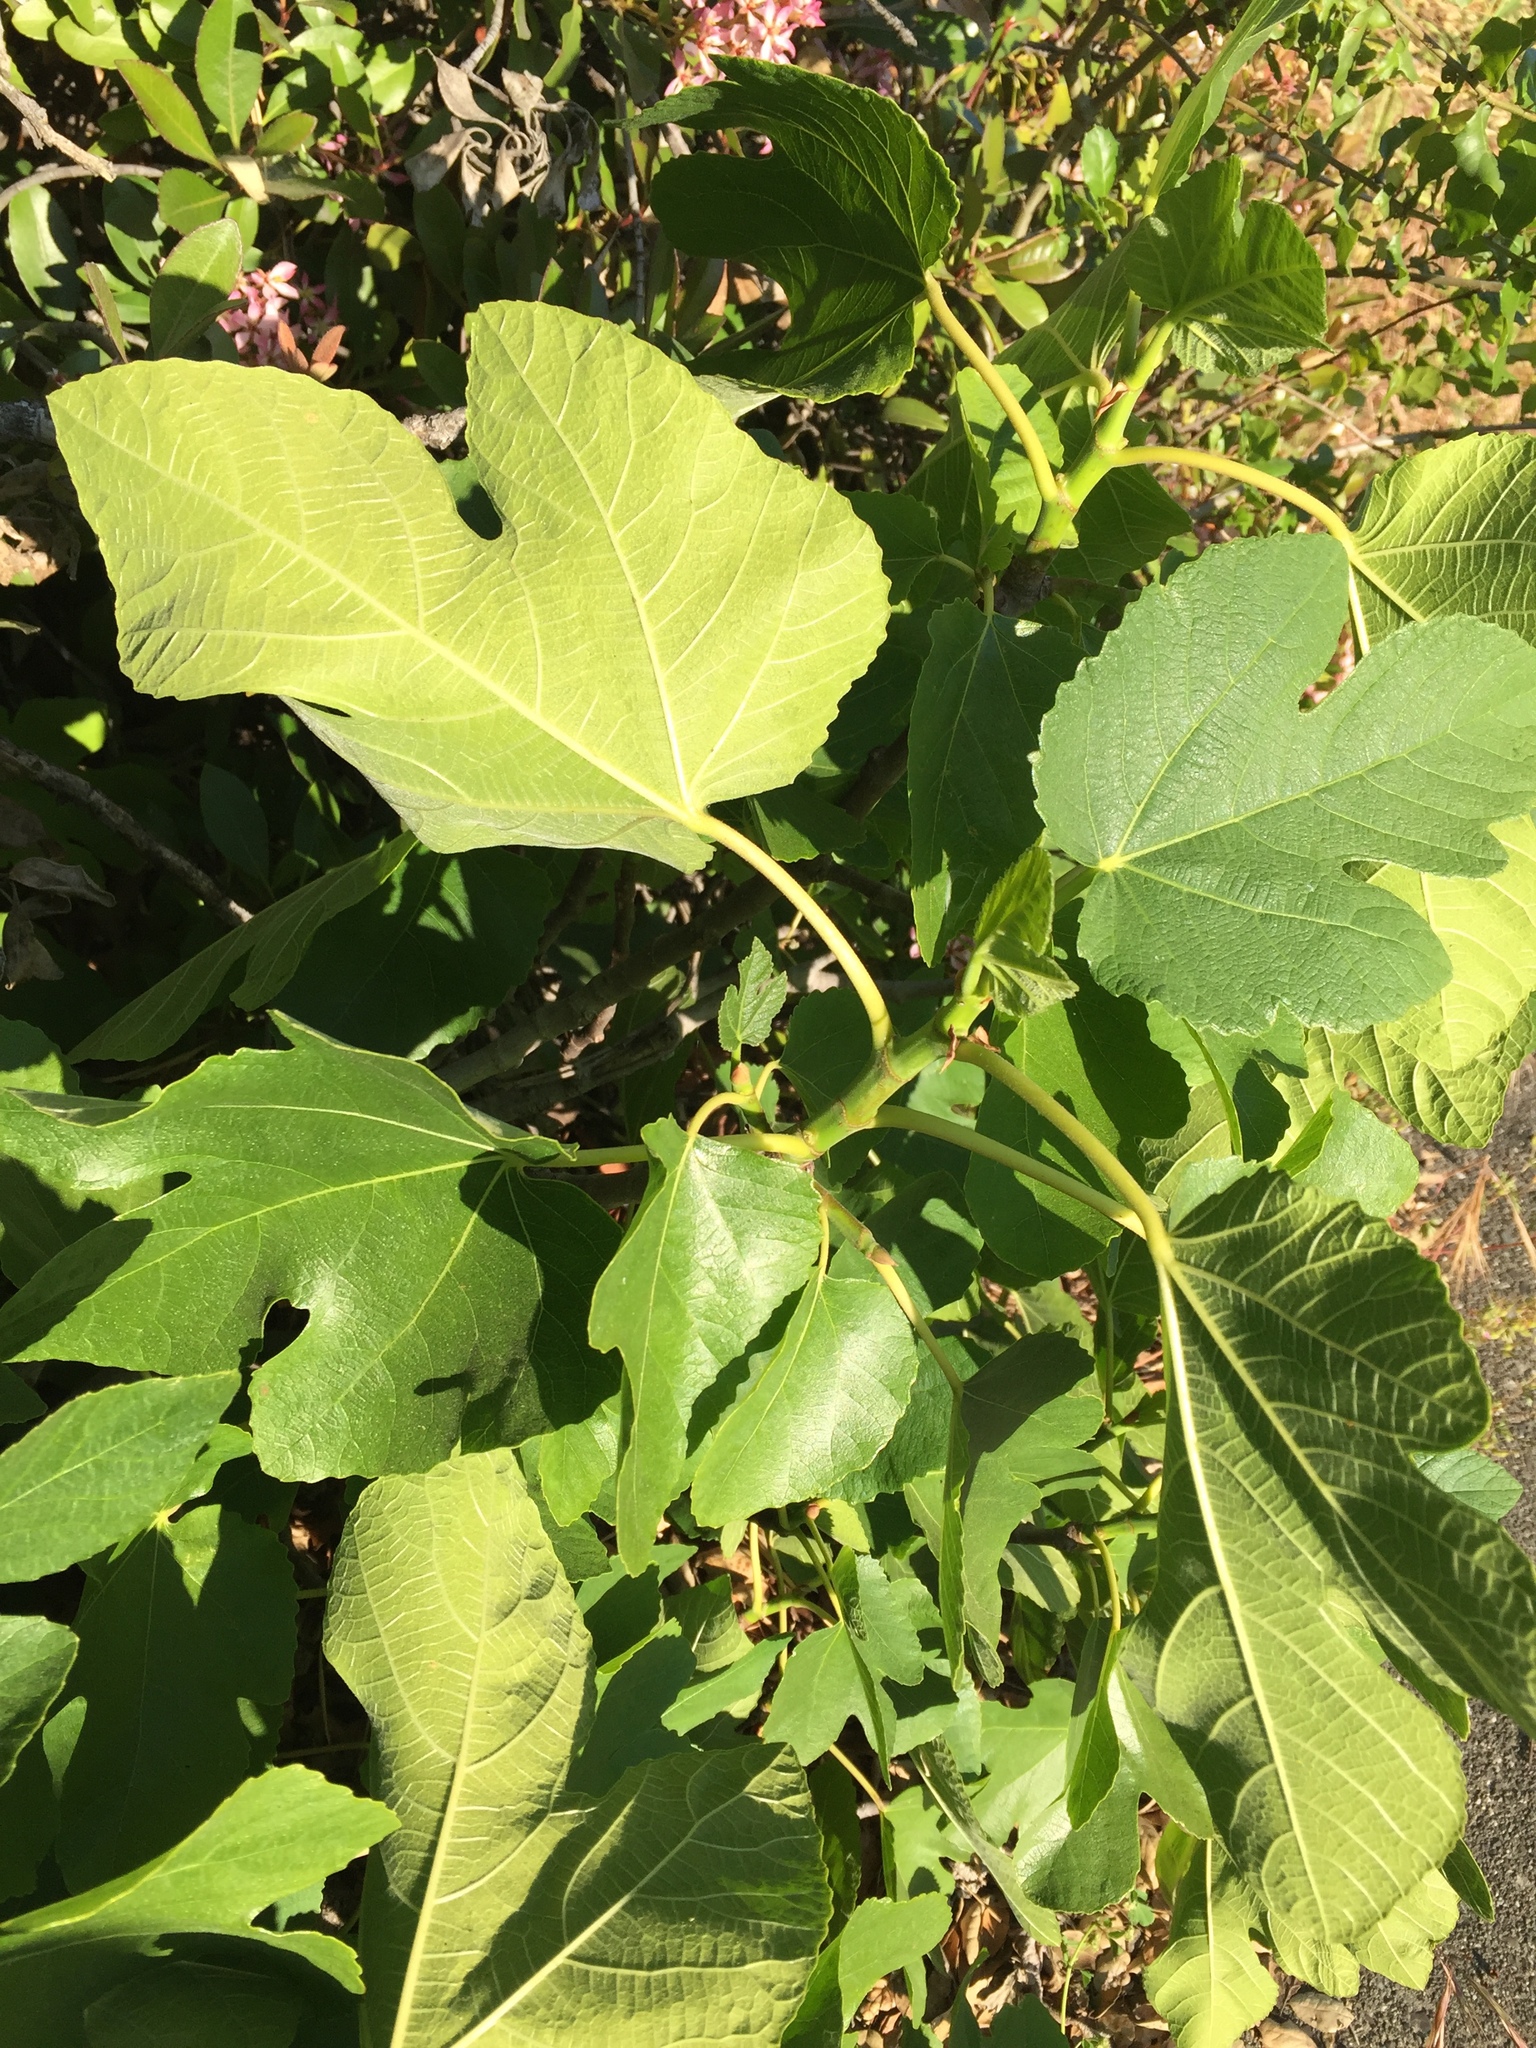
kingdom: Plantae
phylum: Tracheophyta
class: Magnoliopsida
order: Rosales
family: Moraceae
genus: Ficus
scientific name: Ficus carica
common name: Fig
